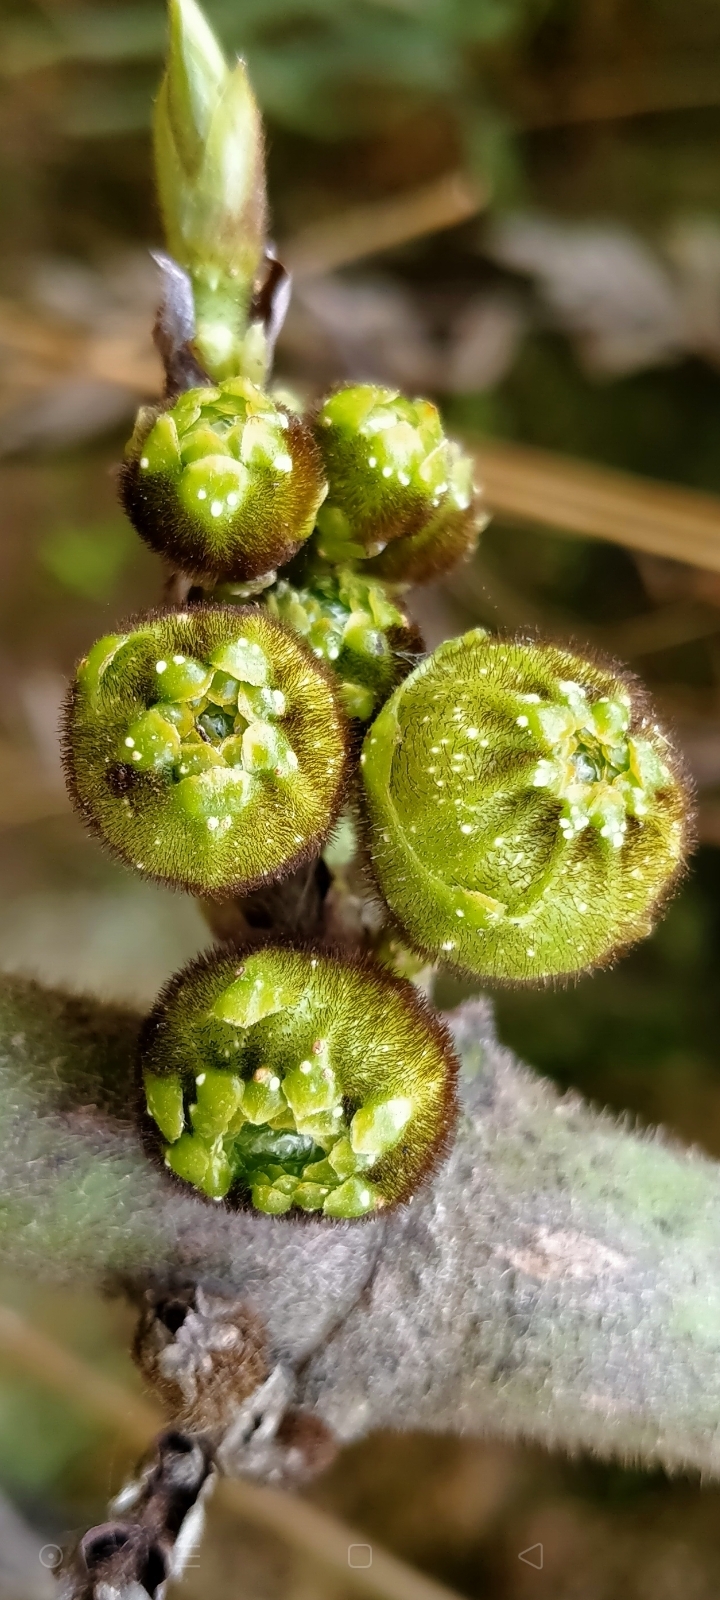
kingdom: Plantae
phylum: Tracheophyta
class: Magnoliopsida
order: Rosales
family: Moraceae
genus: Ficus
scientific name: Ficus hispida
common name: Hairy fig
